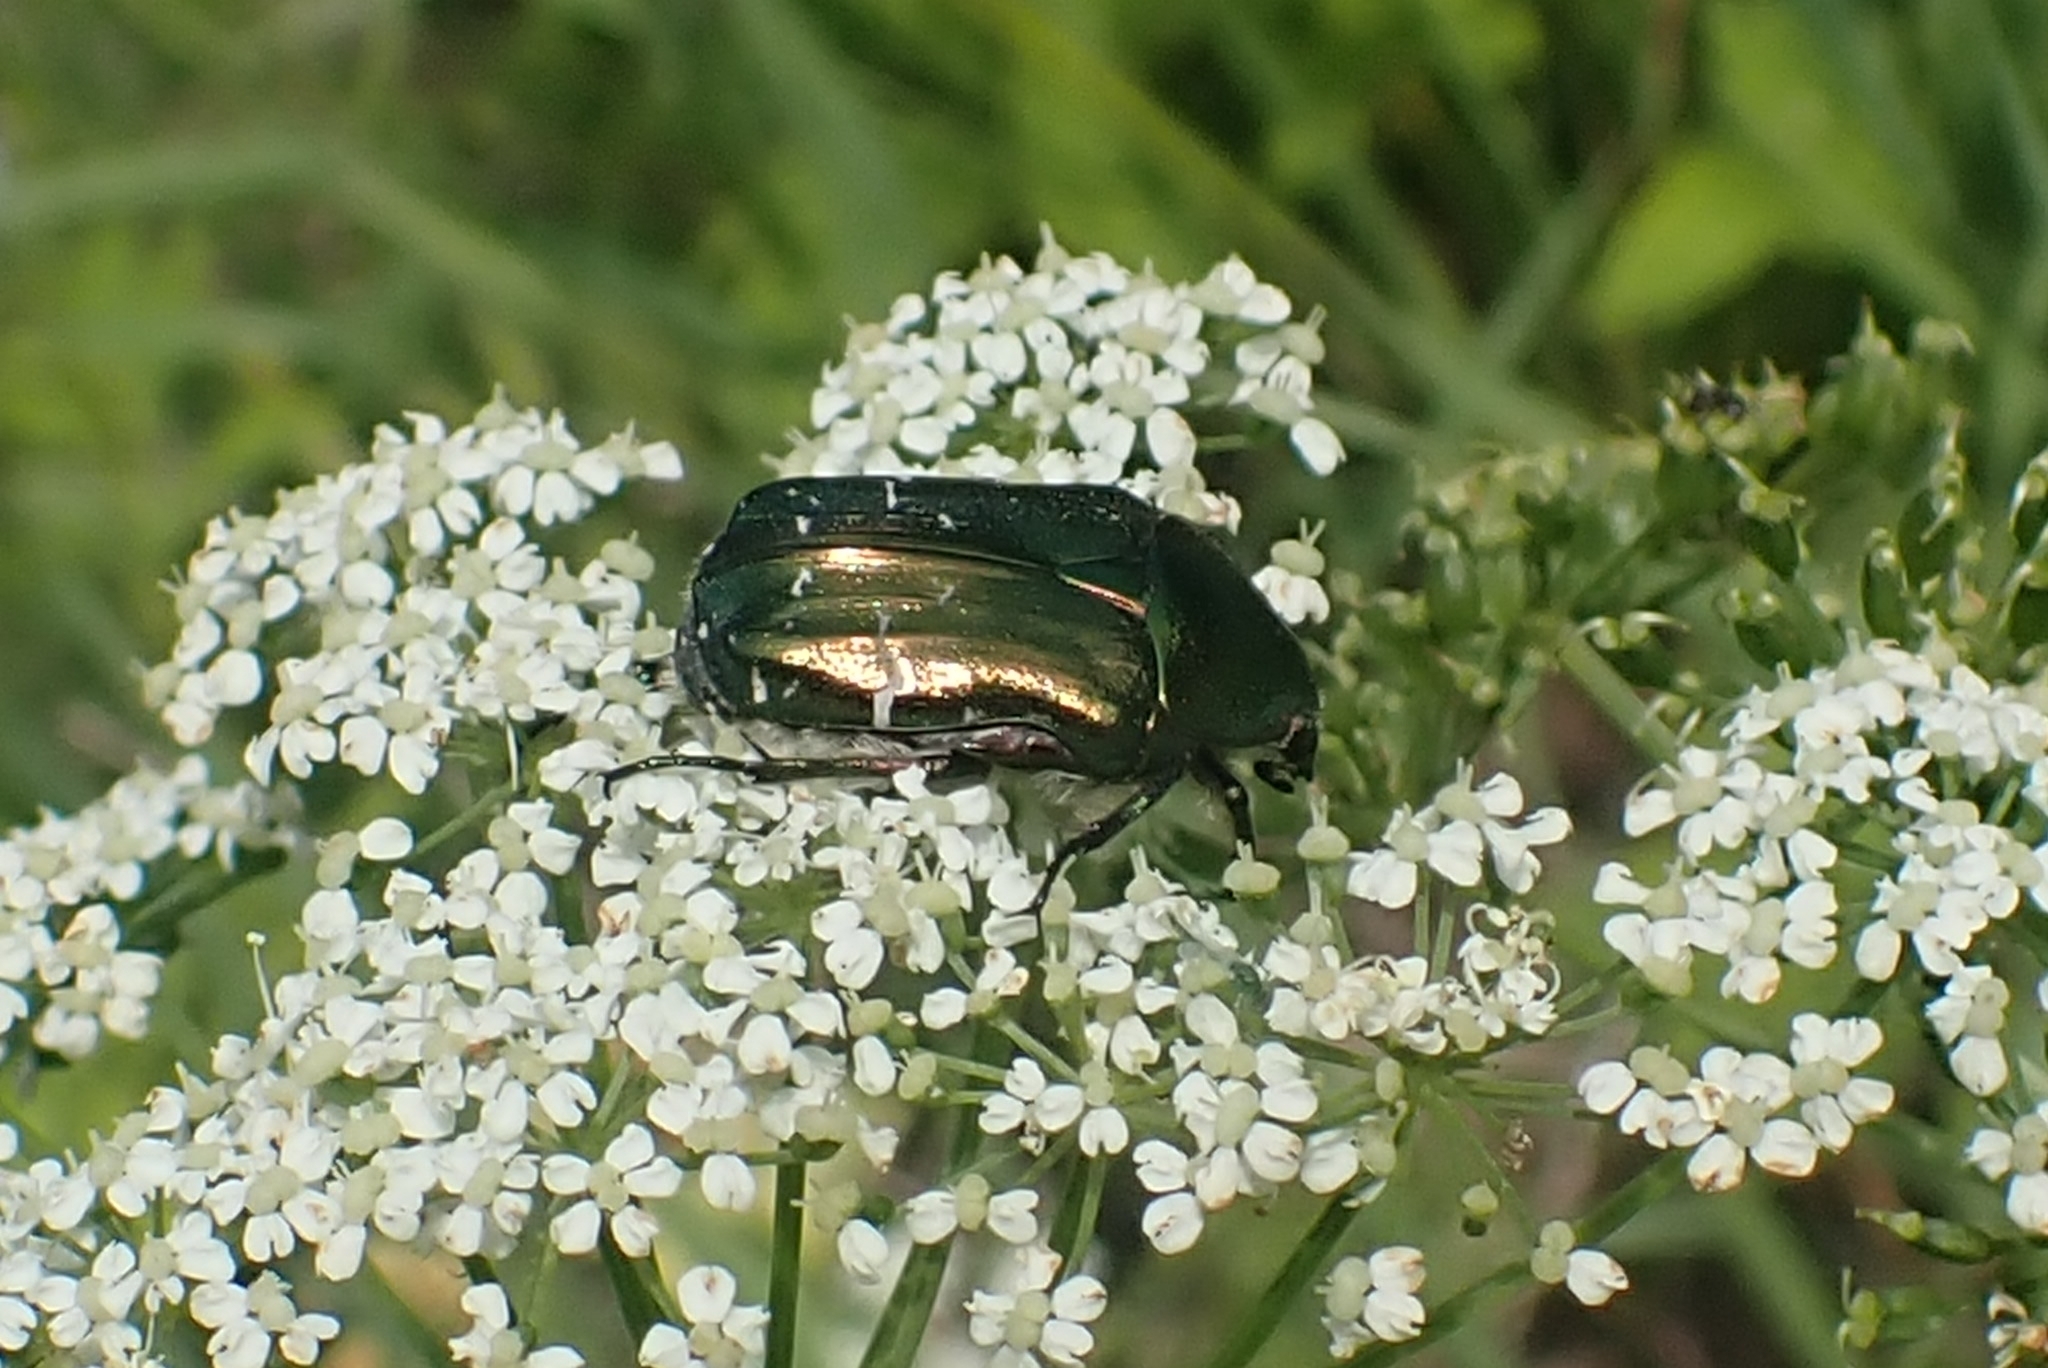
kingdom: Animalia
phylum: Arthropoda
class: Insecta
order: Coleoptera
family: Scarabaeidae
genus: Cetonia
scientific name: Cetonia aurata
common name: Rose chafer
